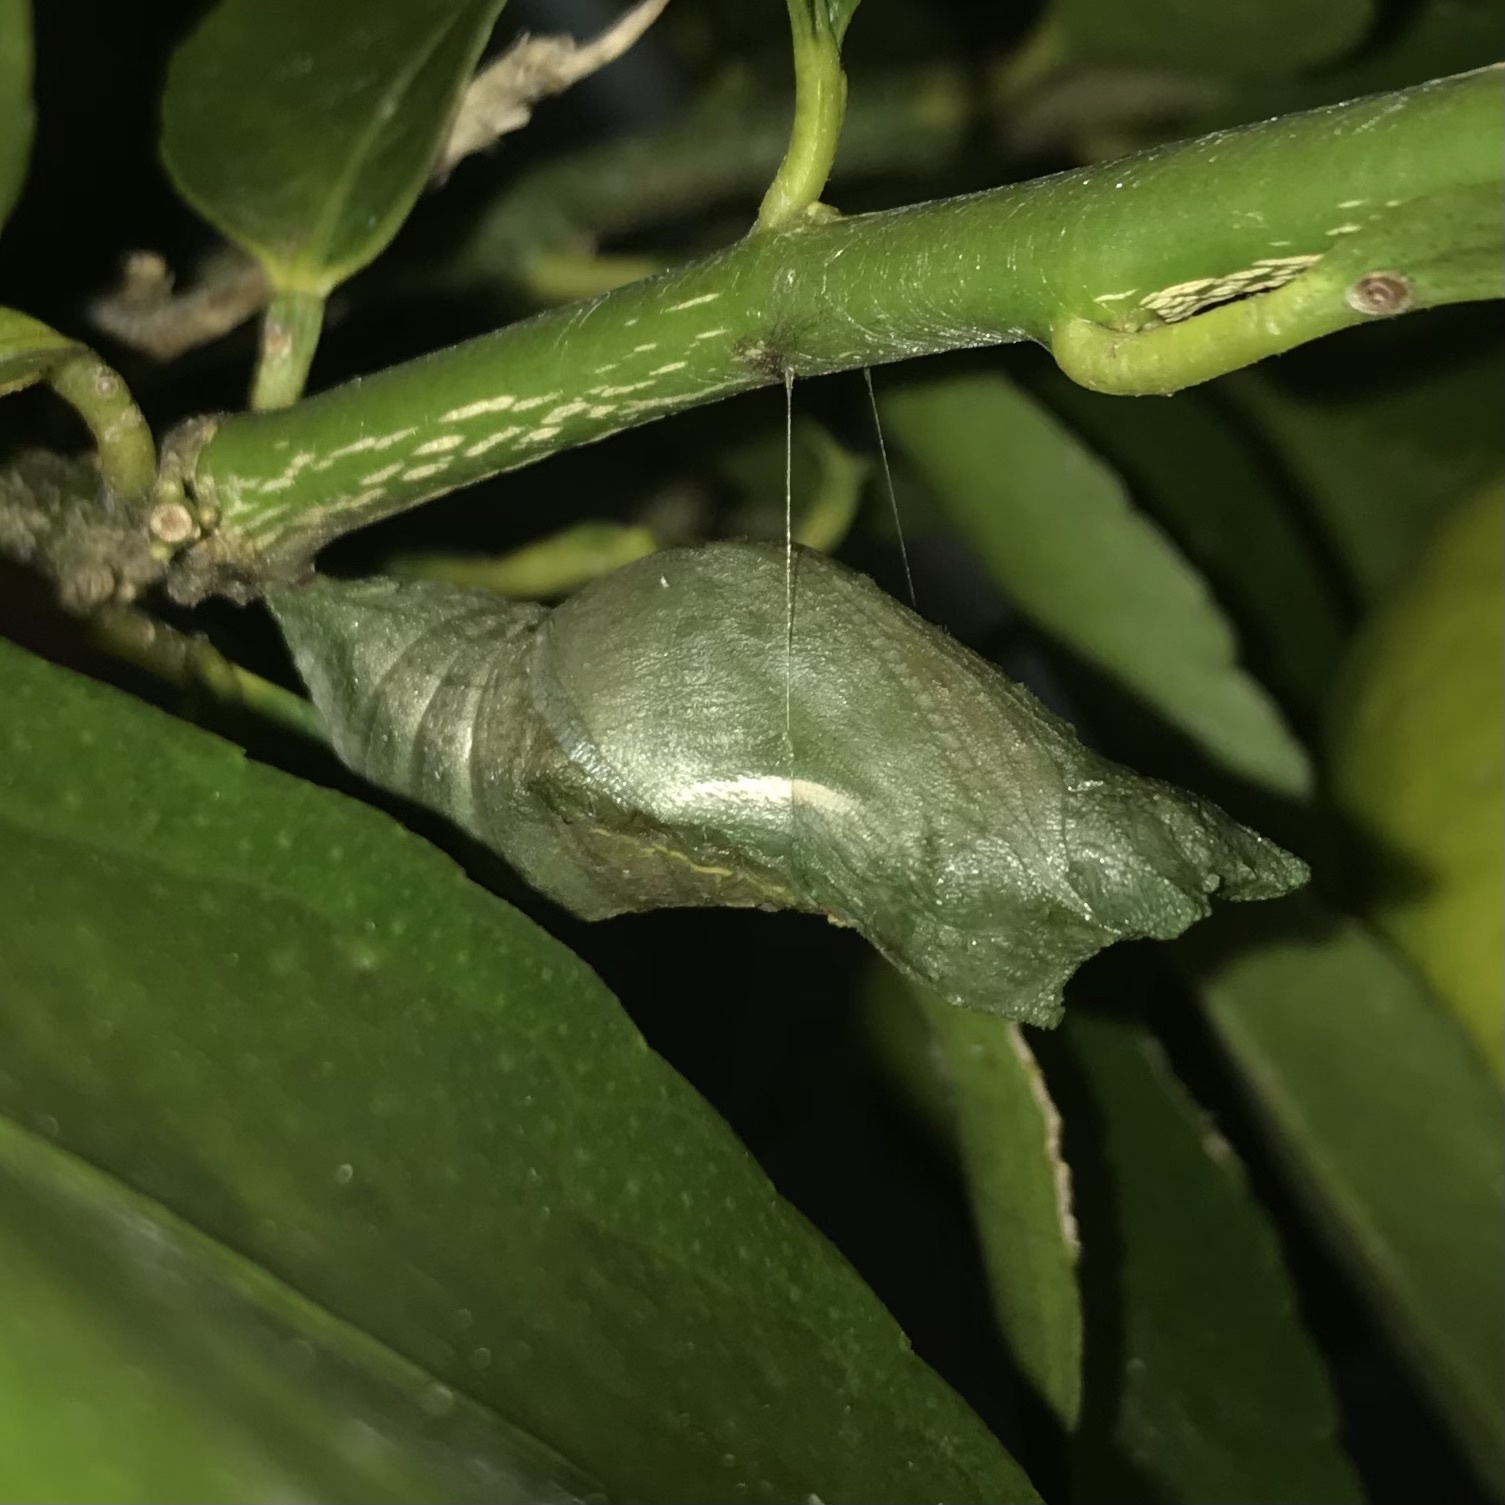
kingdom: Animalia
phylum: Arthropoda
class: Insecta
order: Lepidoptera
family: Papilionidae
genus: Papilio
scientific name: Papilio aegeus
